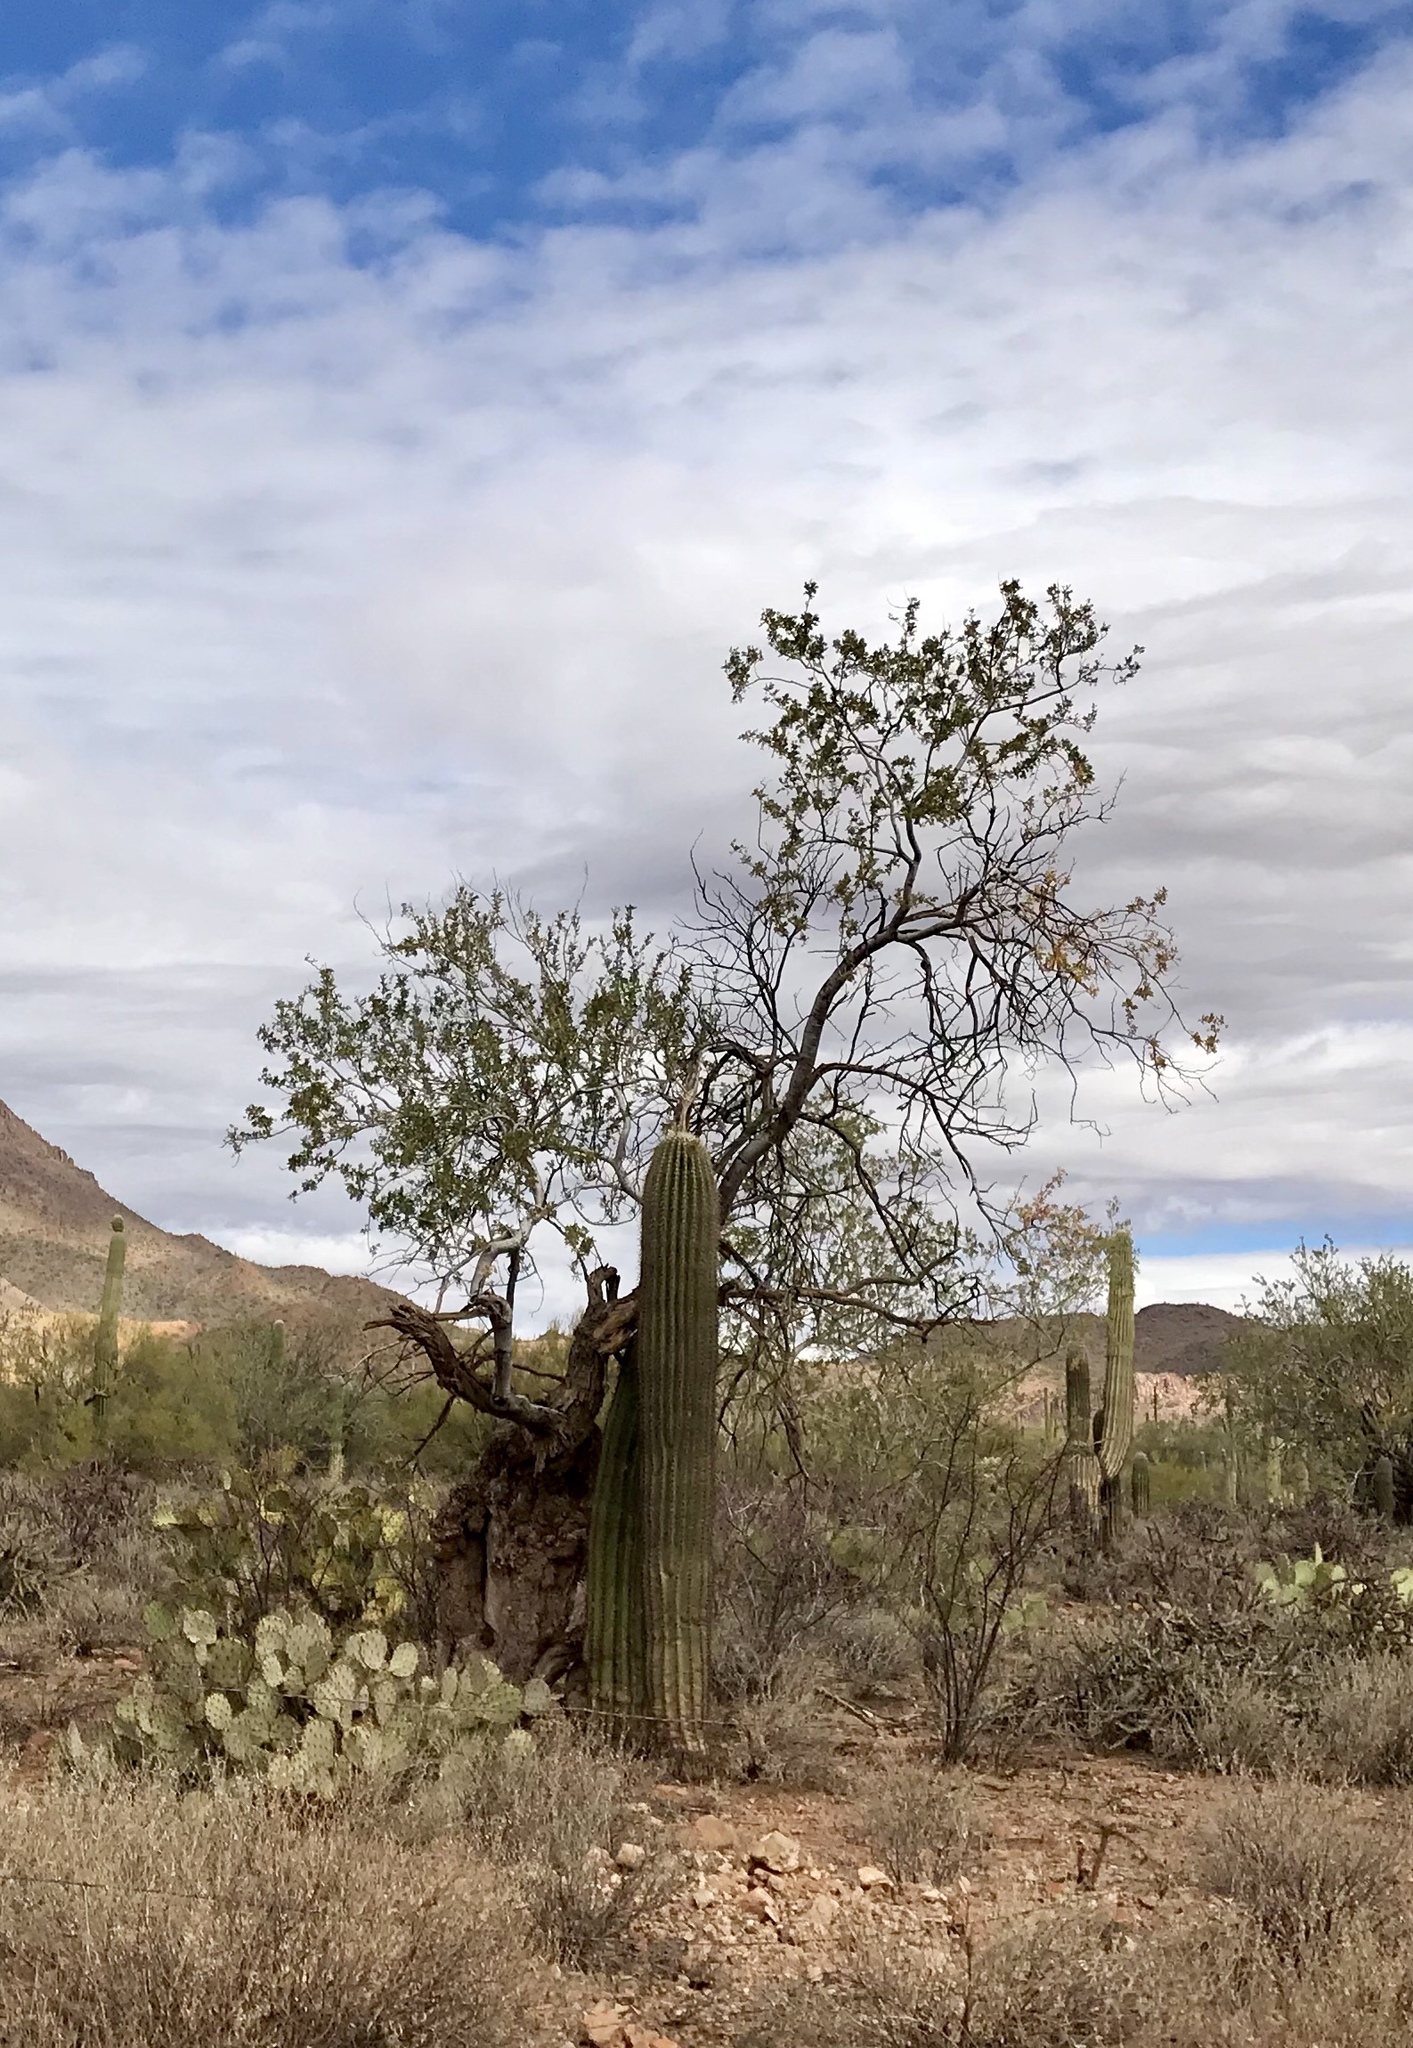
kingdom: Plantae
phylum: Tracheophyta
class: Magnoliopsida
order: Fabales
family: Fabaceae
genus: Olneya
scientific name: Olneya tesota
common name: Desert ironwood
